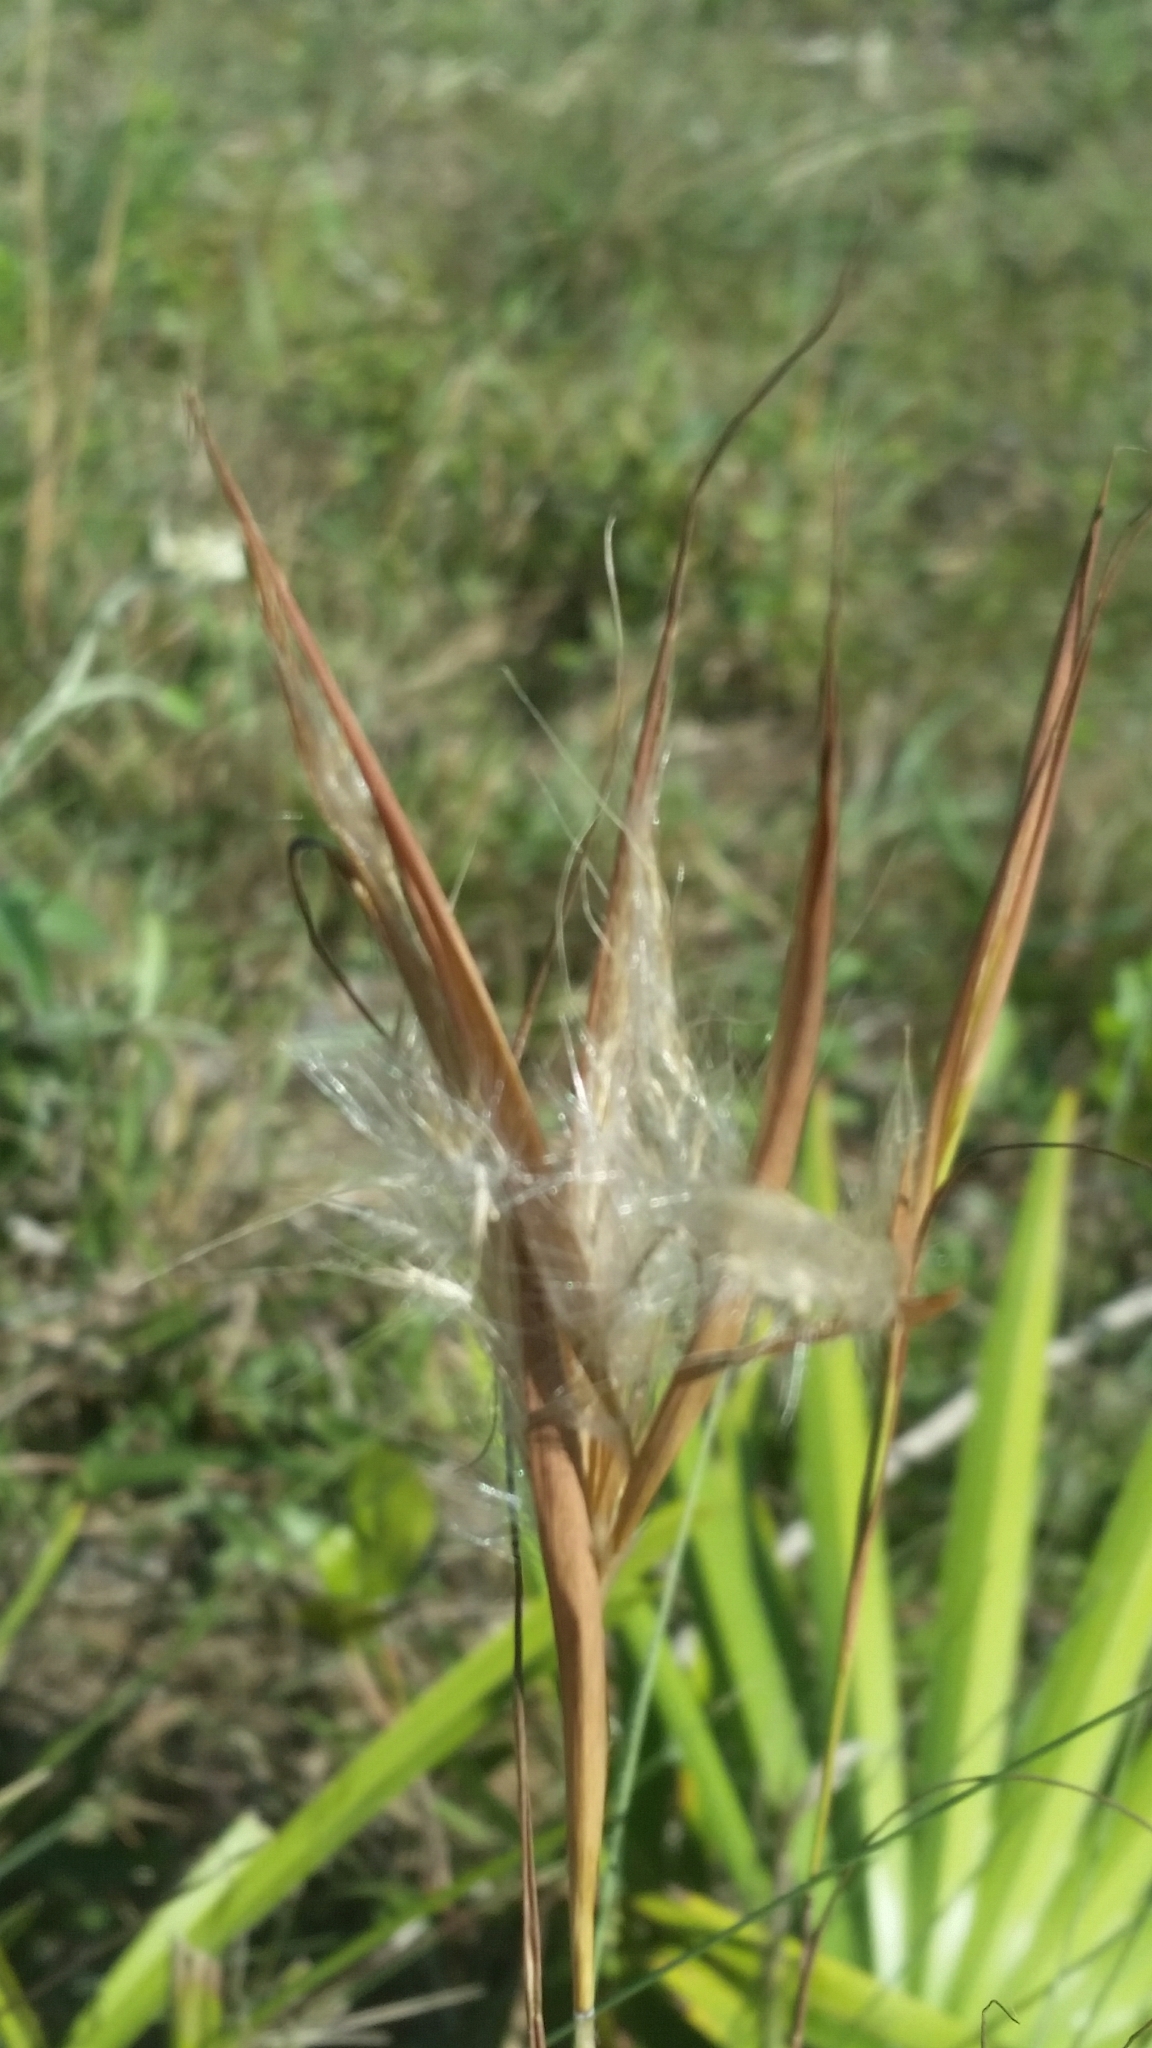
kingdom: Plantae
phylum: Tracheophyta
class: Liliopsida
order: Poales
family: Poaceae
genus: Andropogon
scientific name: Andropogon gyrans
